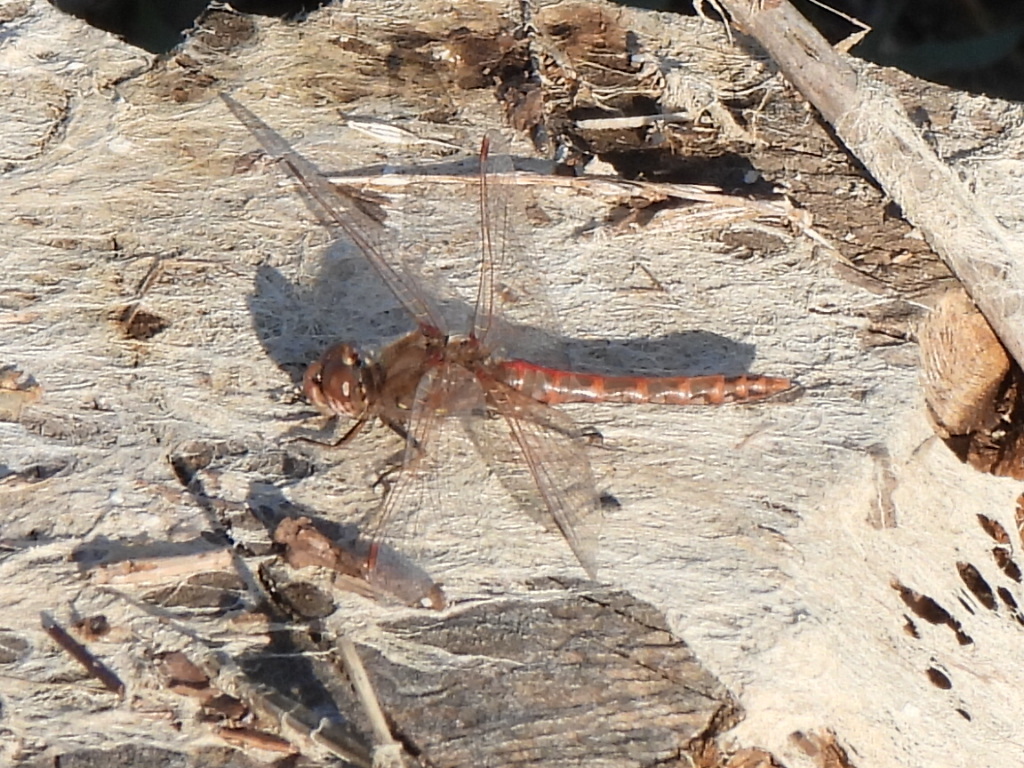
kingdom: Animalia
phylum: Arthropoda
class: Insecta
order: Odonata
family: Libellulidae
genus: Sympetrum
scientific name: Sympetrum corruptum
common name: Variegated meadowhawk
